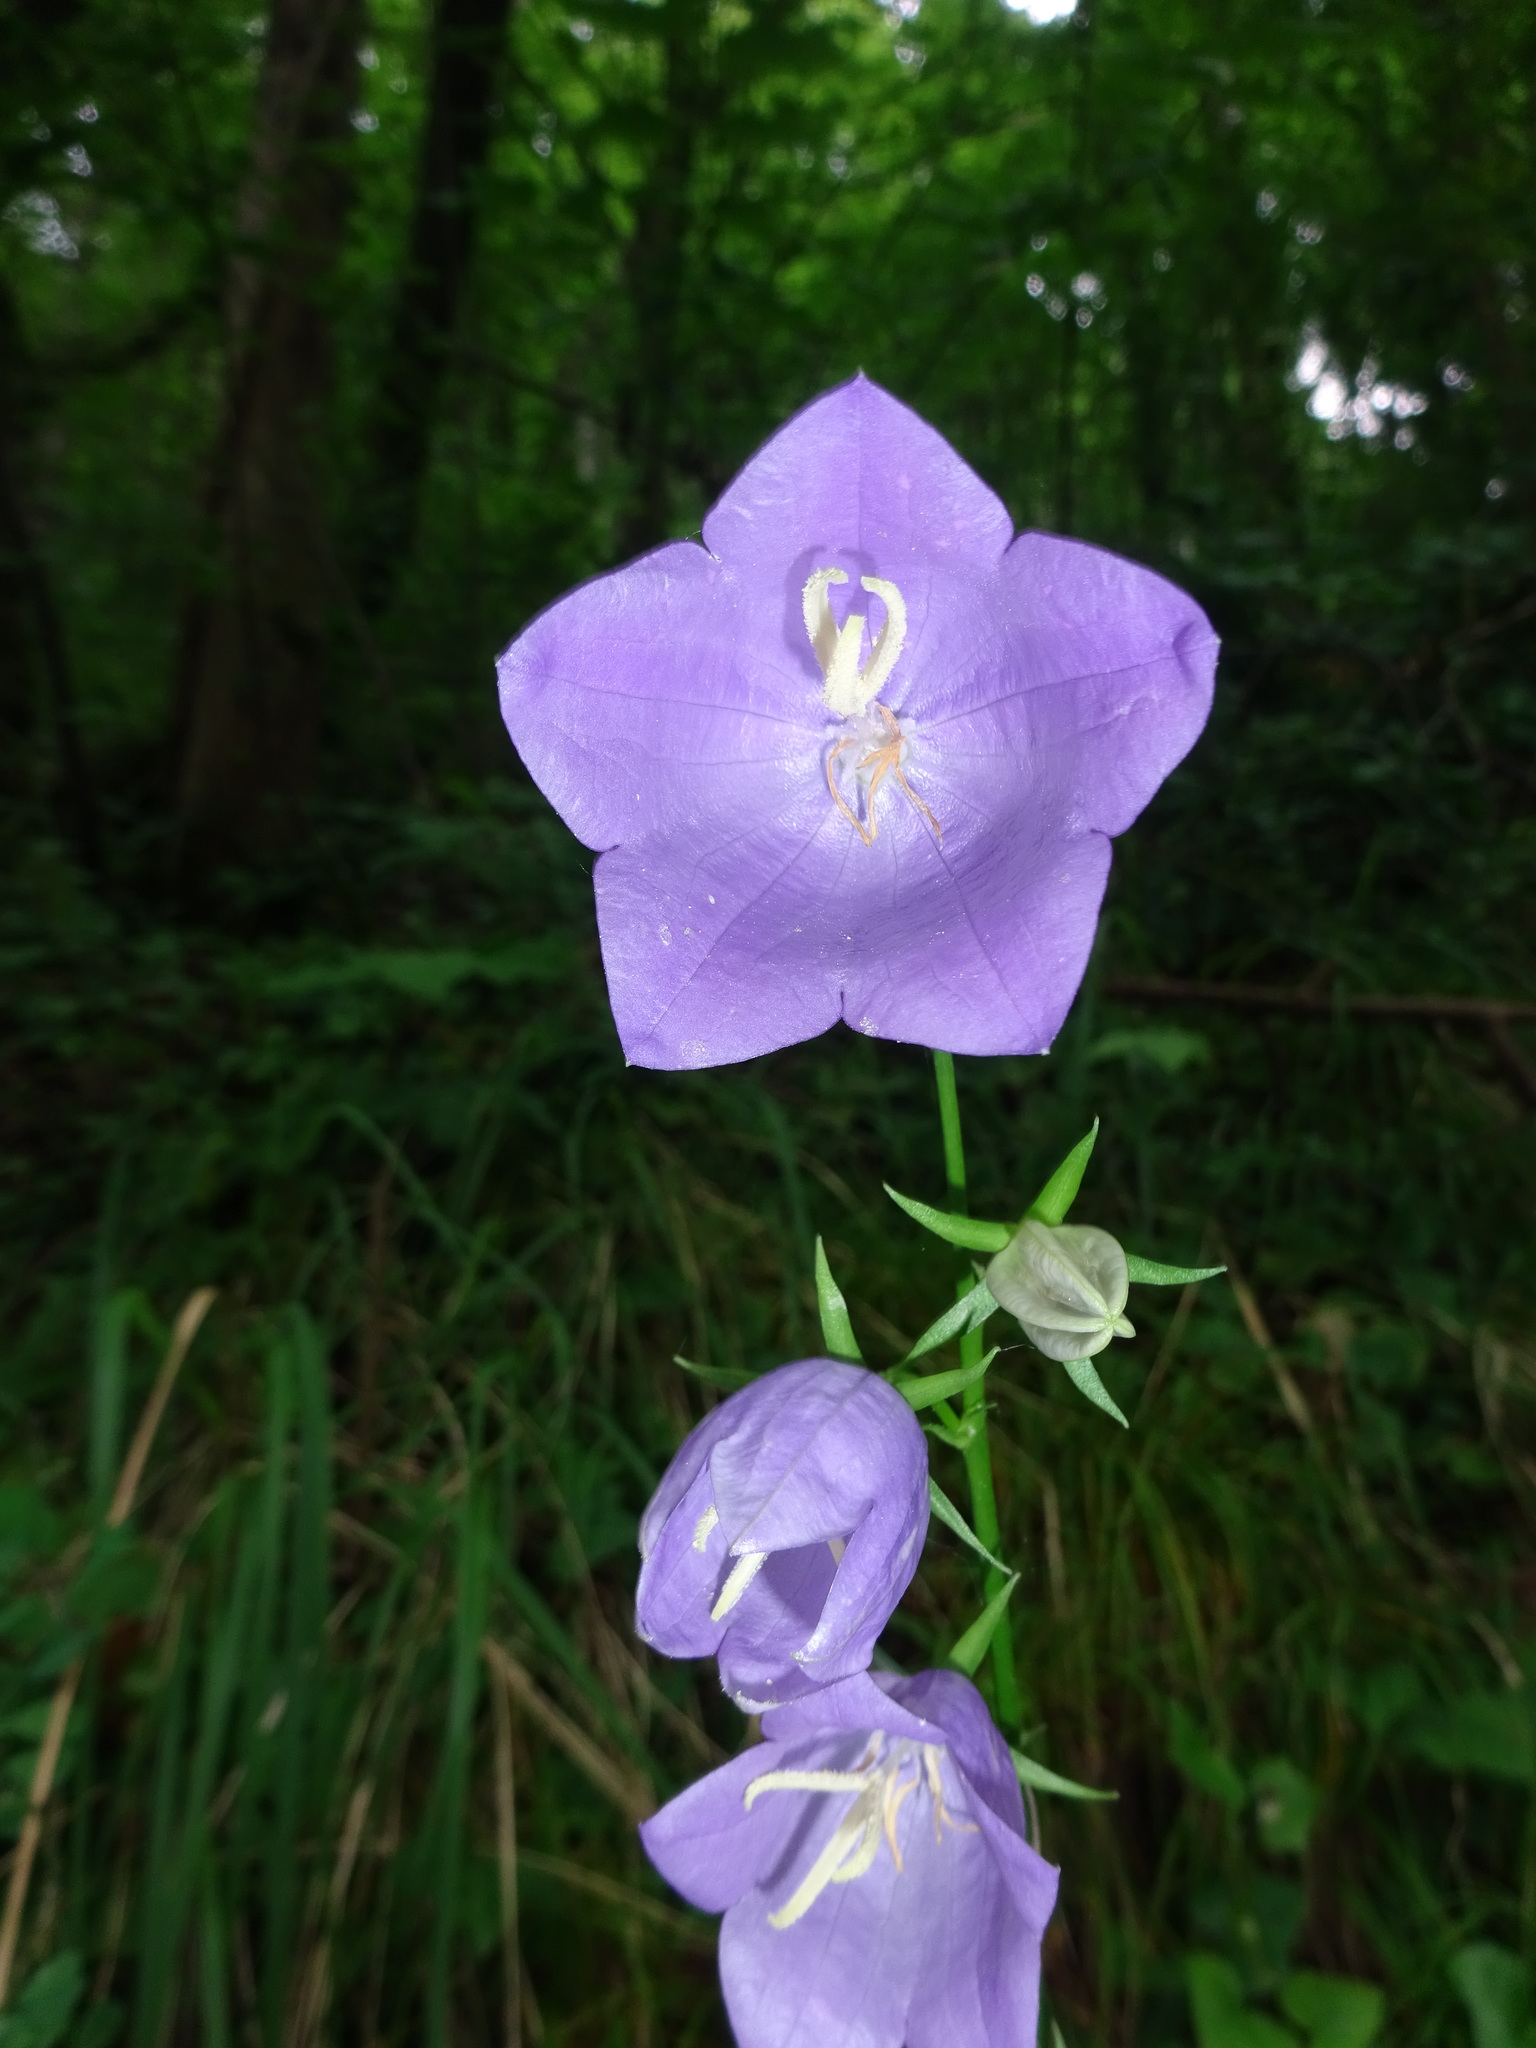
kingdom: Plantae
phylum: Tracheophyta
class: Magnoliopsida
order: Asterales
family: Campanulaceae
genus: Campanula
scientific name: Campanula persicifolia
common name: Peach-leaved bellflower
